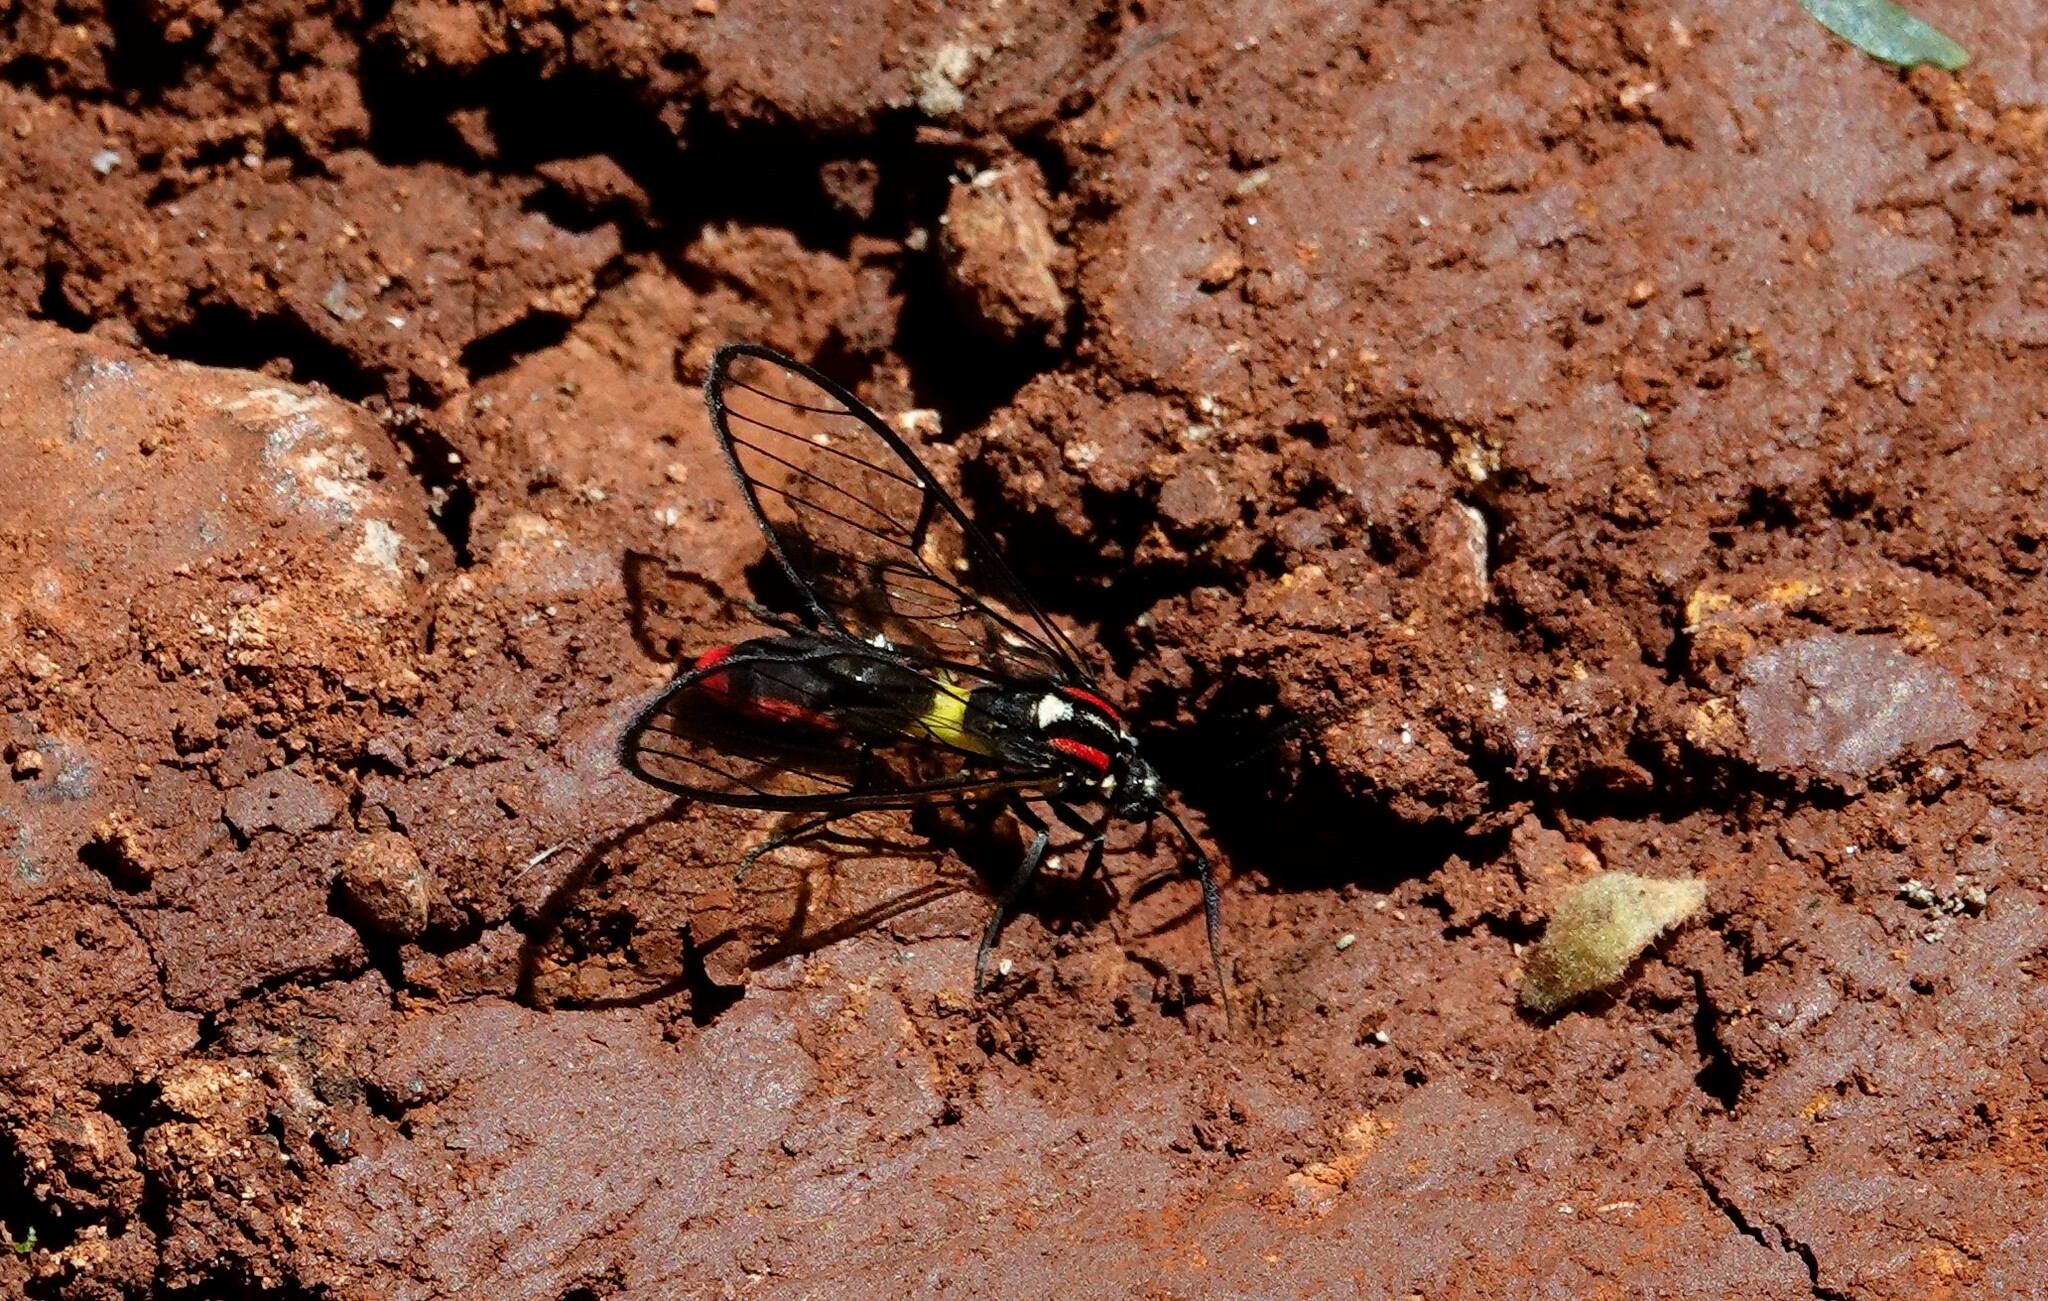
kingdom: Animalia
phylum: Arthropoda
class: Insecta
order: Lepidoptera
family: Erebidae
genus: Argyroeides
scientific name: Argyroeides braco
